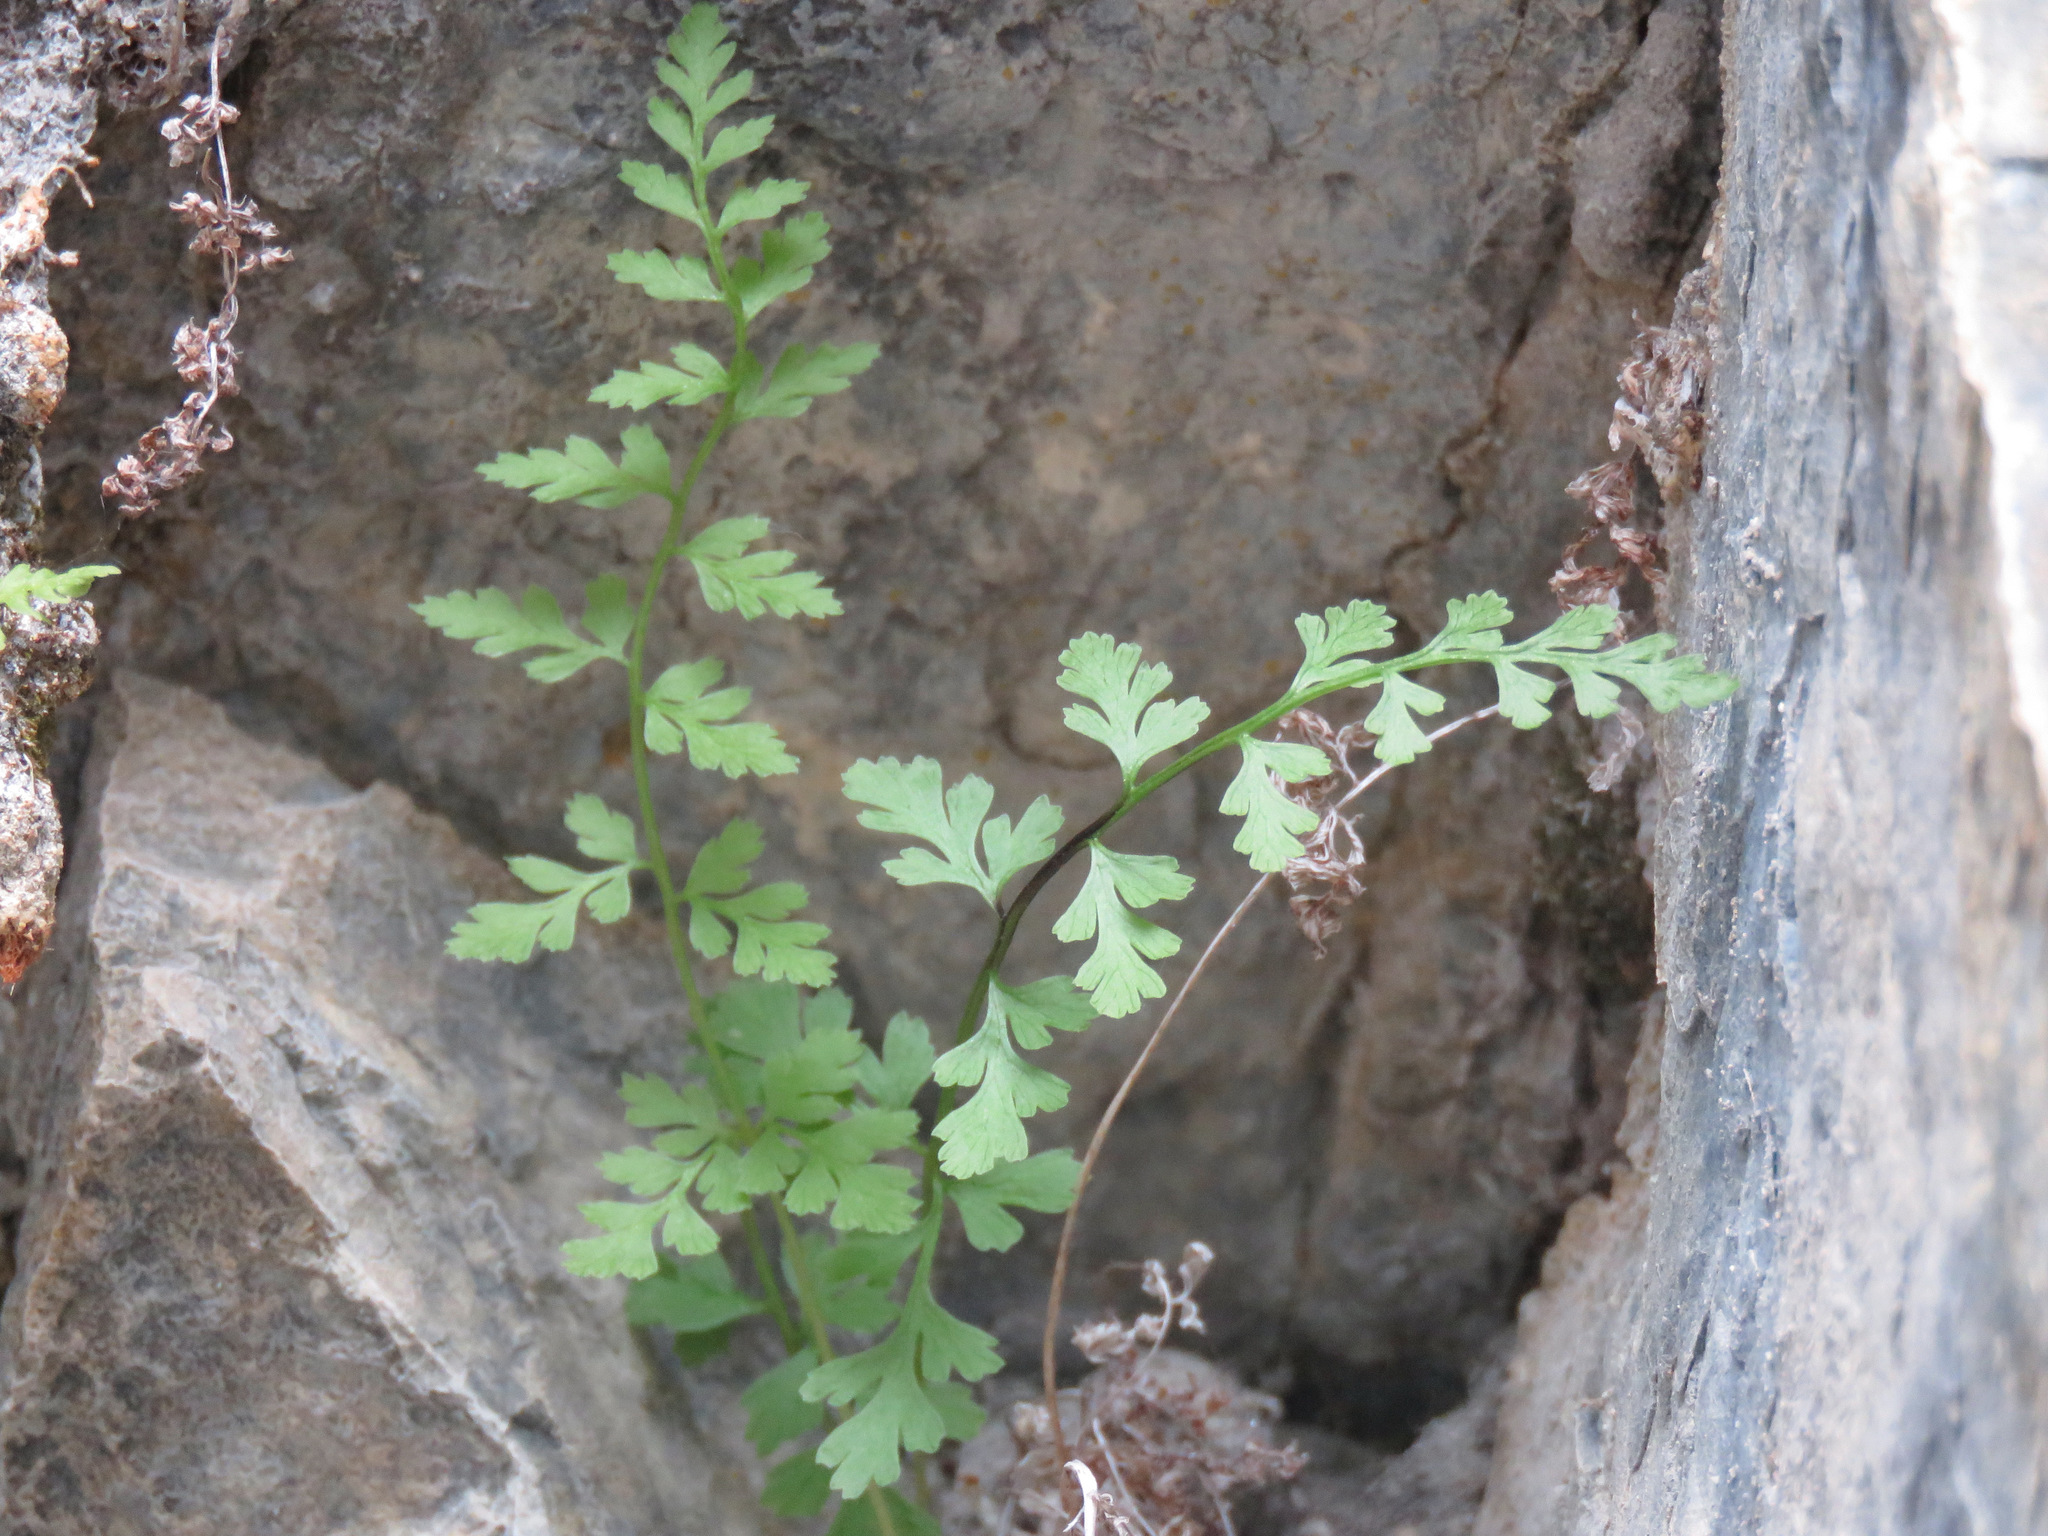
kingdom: Plantae
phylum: Tracheophyta
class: Polypodiopsida
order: Polypodiales
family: Cystopteridaceae
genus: Cystopteris
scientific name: Cystopteris fragilis
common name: Brittle bladder fern
